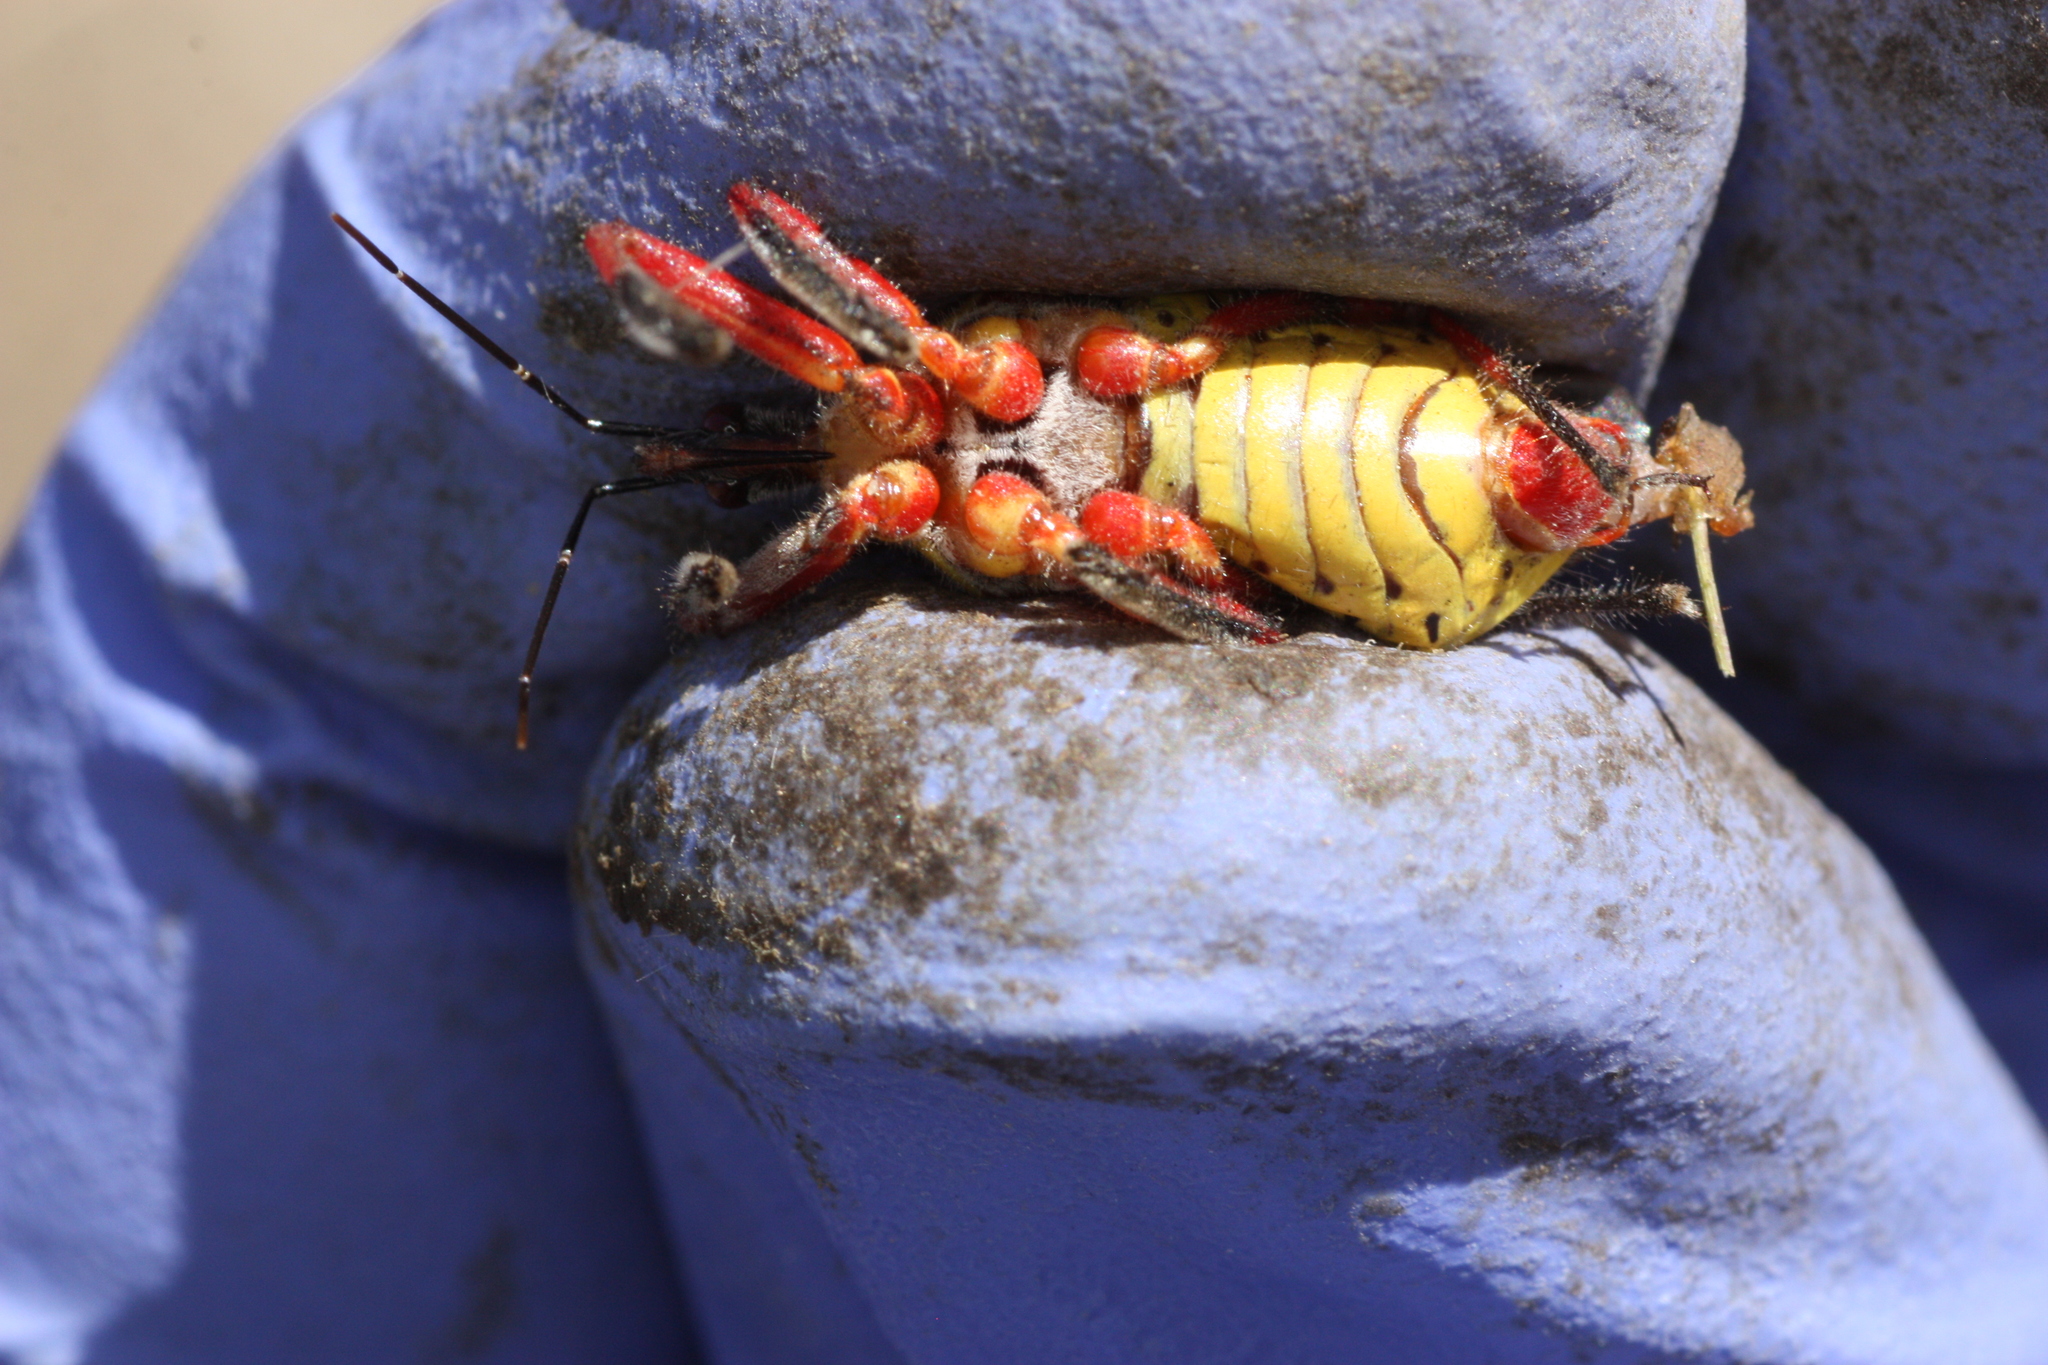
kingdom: Animalia
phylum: Arthropoda
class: Insecta
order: Hemiptera
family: Reduviidae
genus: Apiomerus
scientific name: Apiomerus flaviventris
